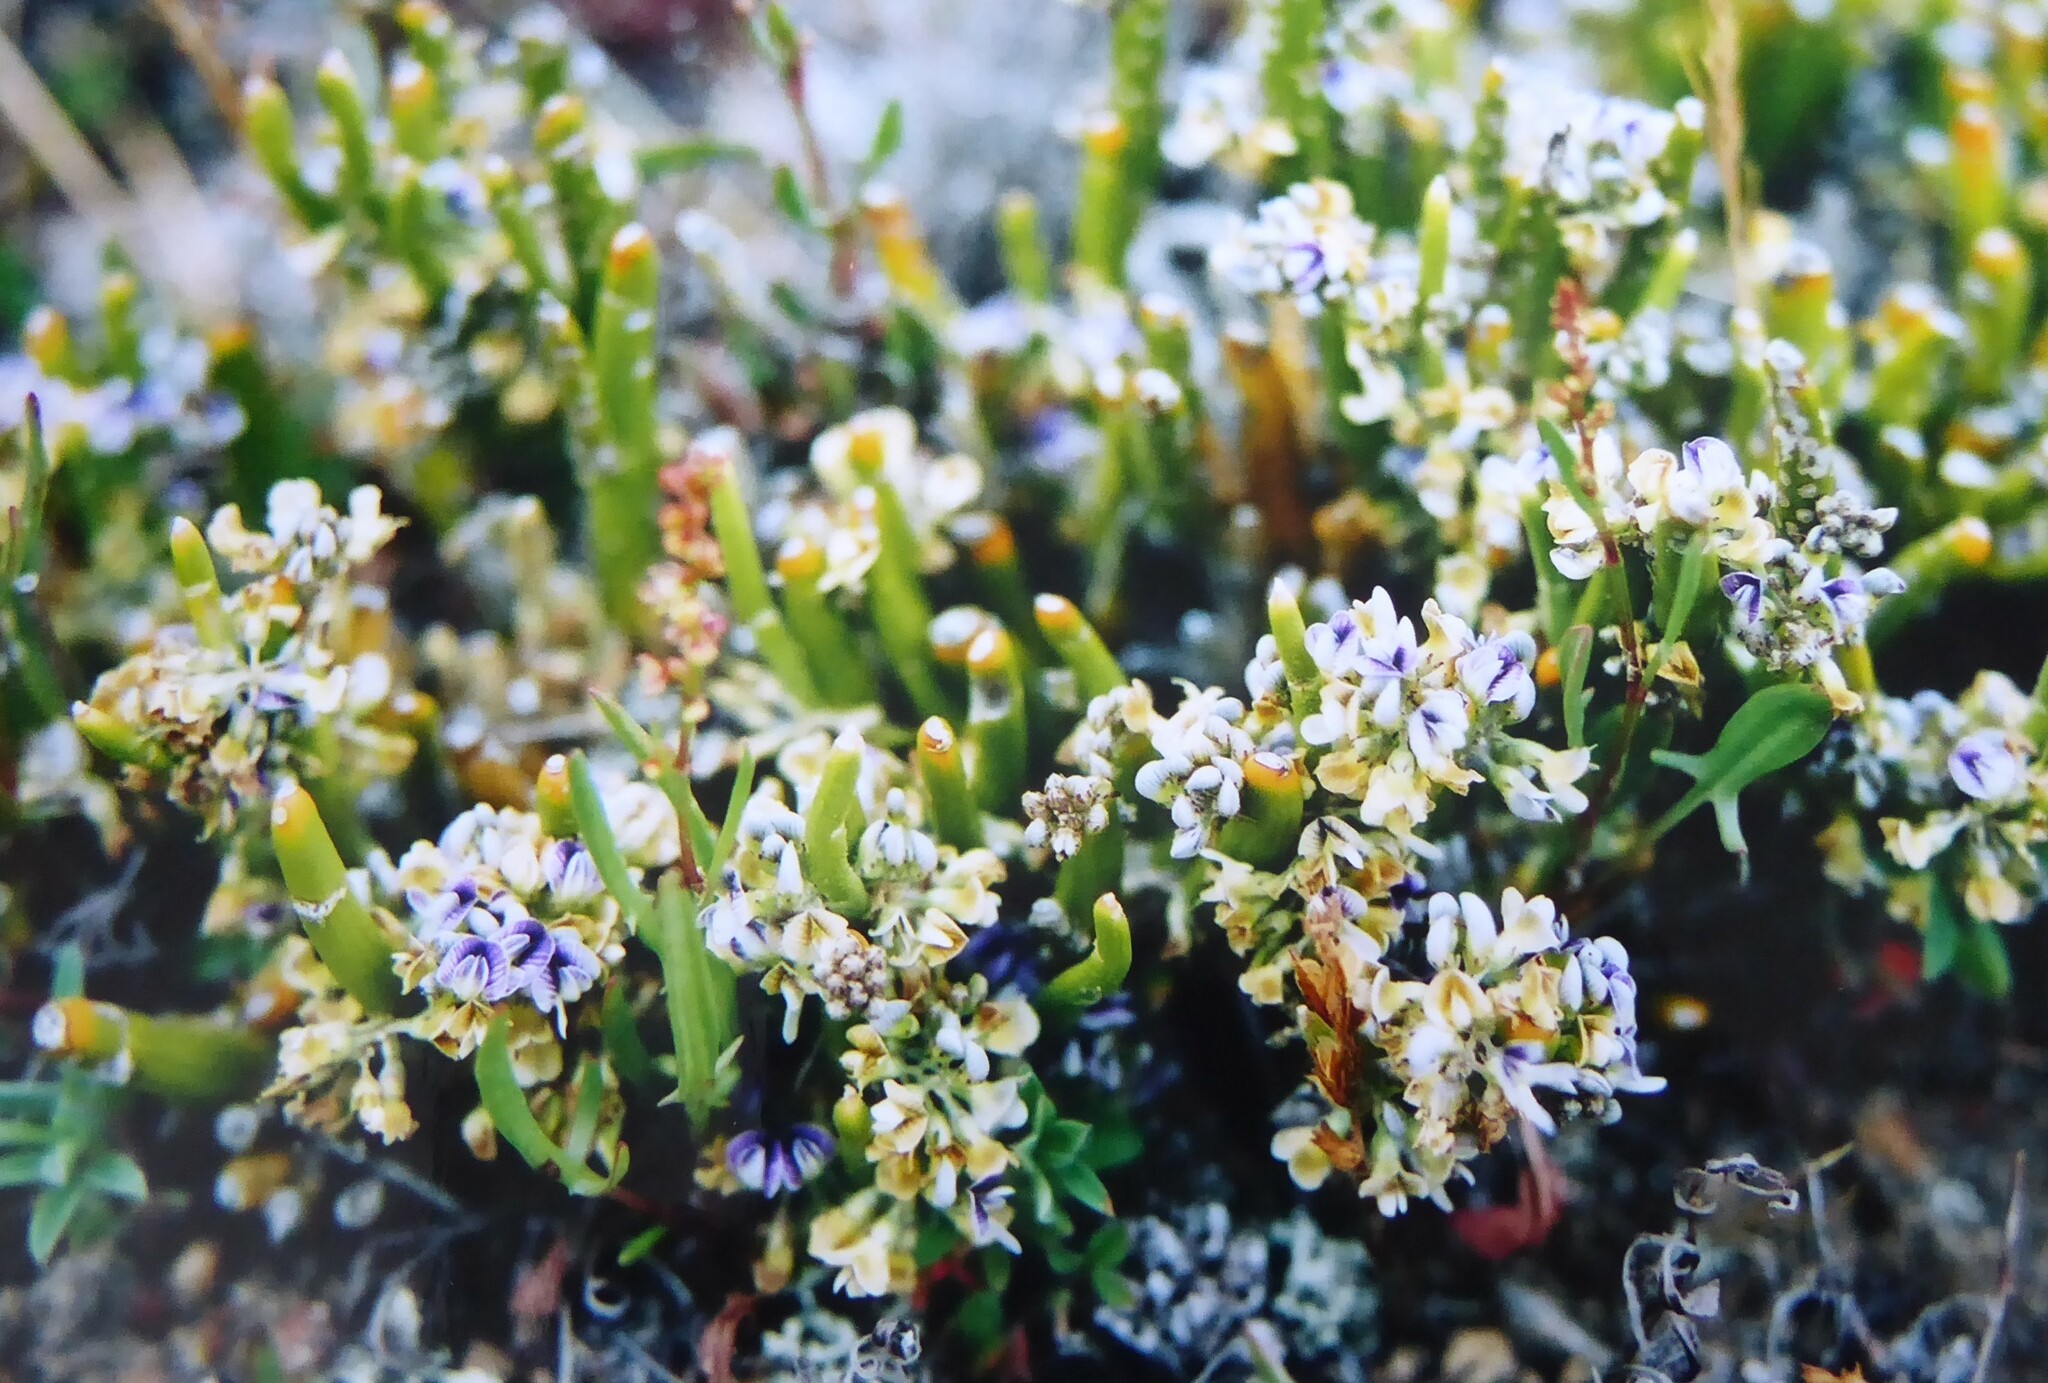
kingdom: Plantae
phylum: Tracheophyta
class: Magnoliopsida
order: Fabales
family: Fabaceae
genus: Carmichaelia
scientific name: Carmichaelia vexillata
